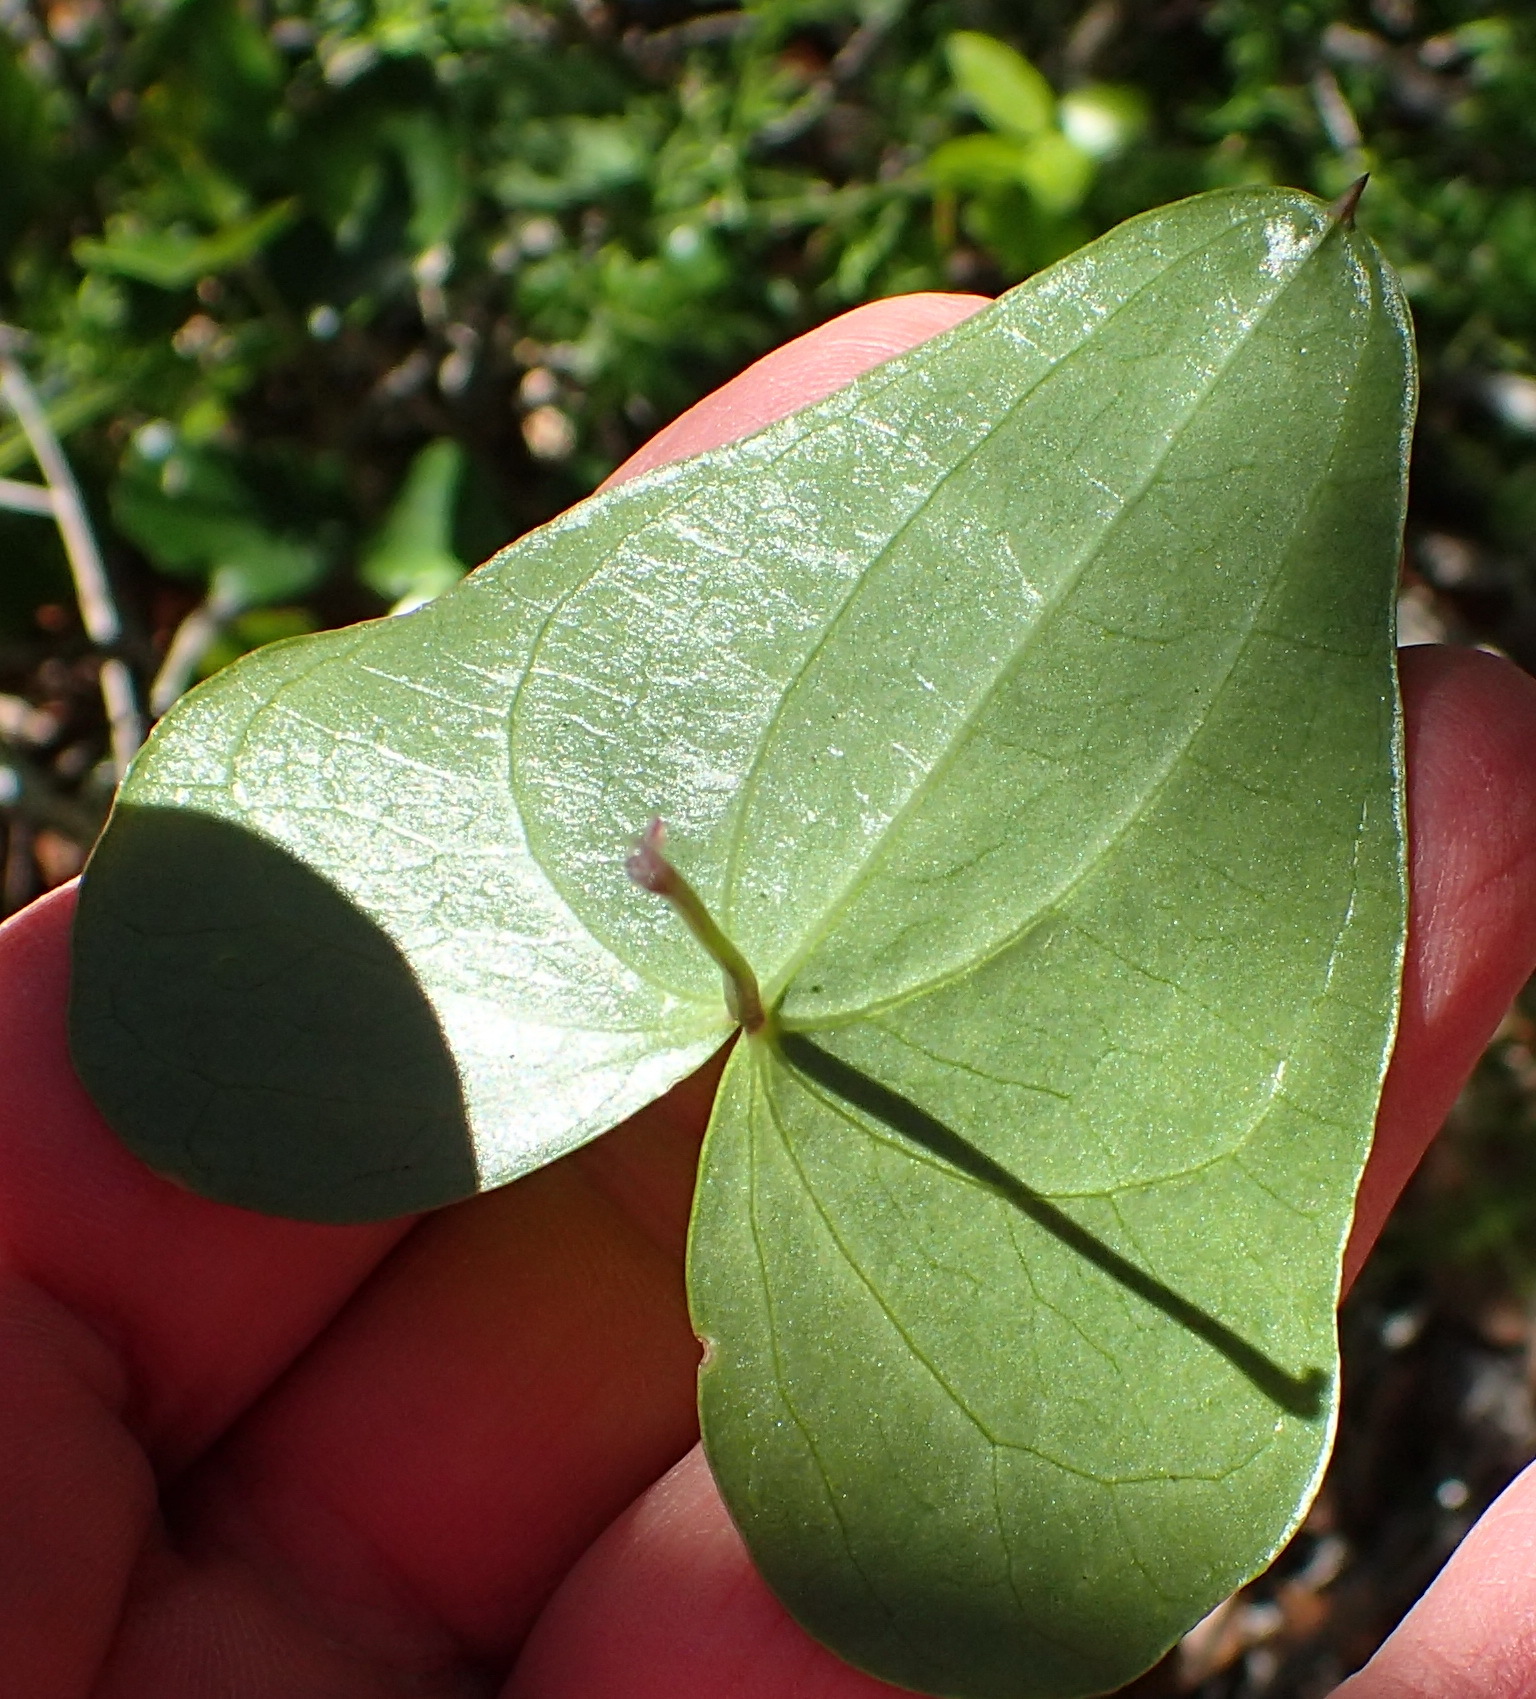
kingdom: Plantae
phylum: Tracheophyta
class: Liliopsida
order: Dioscoreales
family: Dioscoreaceae
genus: Dioscorea
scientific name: Dioscorea mundii
